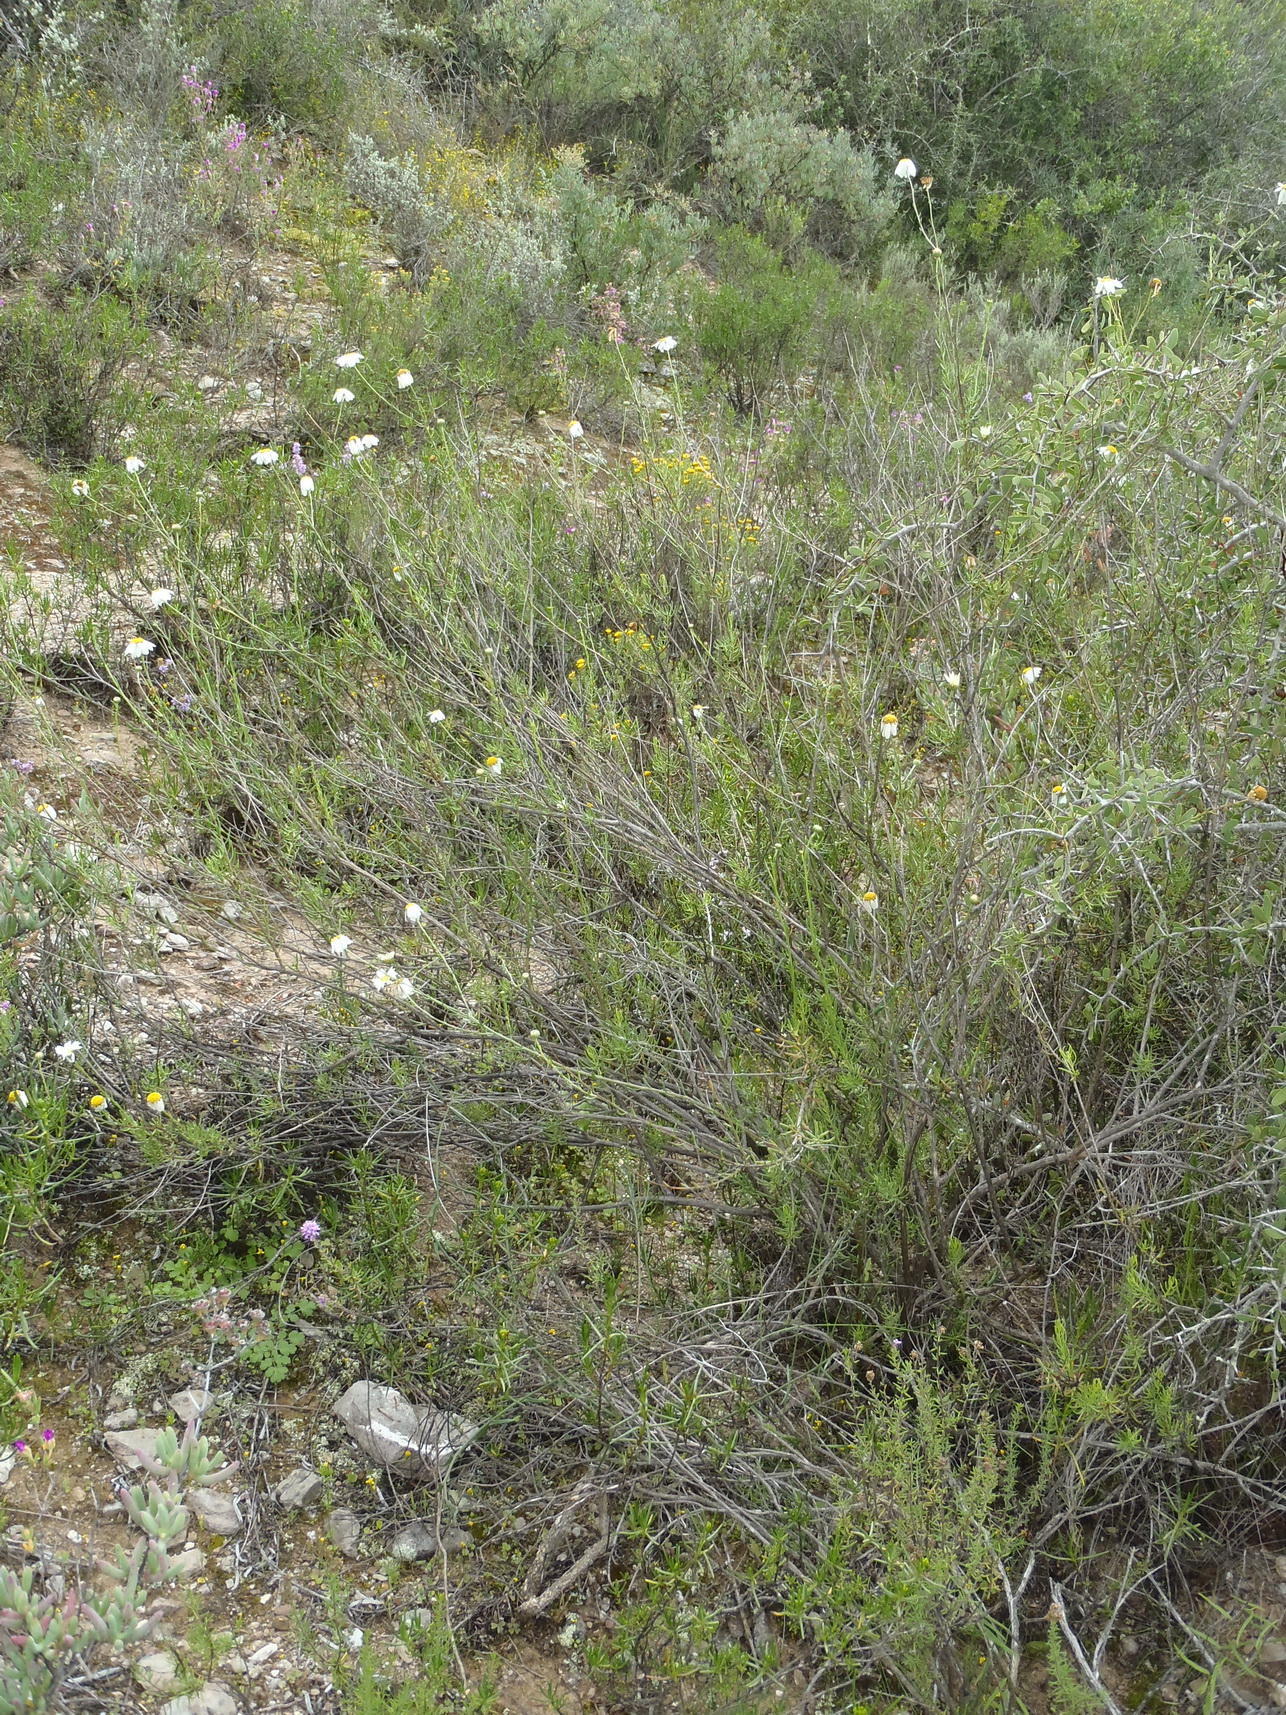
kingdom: Plantae
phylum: Tracheophyta
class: Magnoliopsida
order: Asterales
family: Asteraceae
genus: Phymaspermum
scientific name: Phymaspermum leptophyllum
